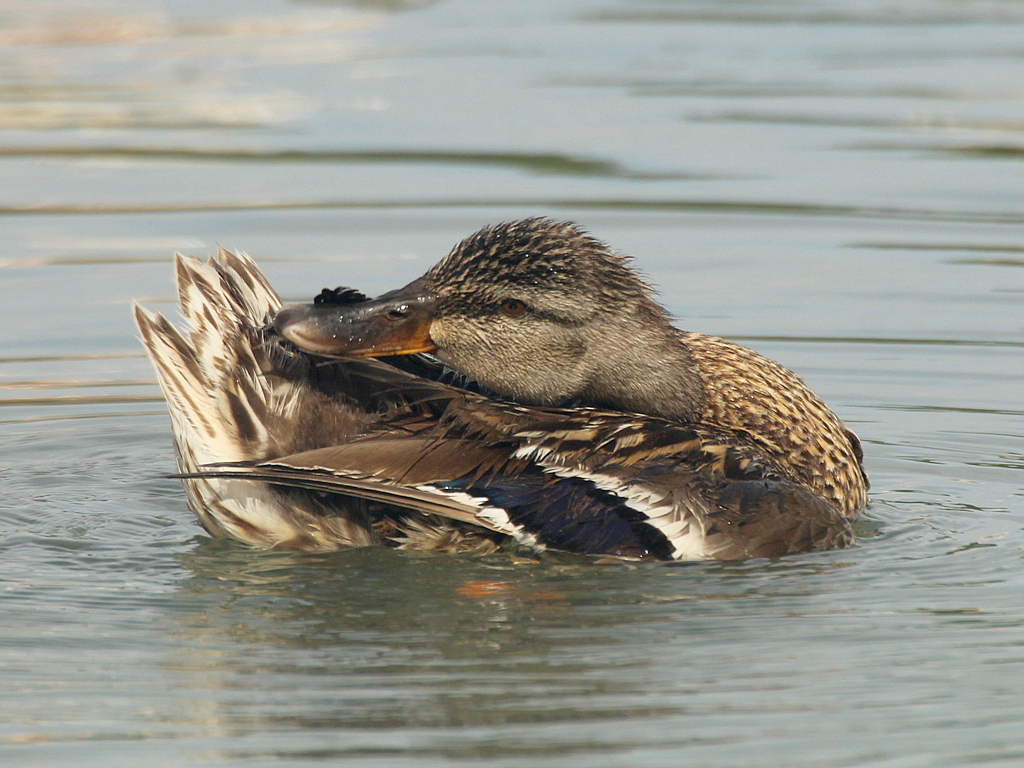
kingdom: Animalia
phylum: Chordata
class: Aves
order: Anseriformes
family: Anatidae
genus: Anas
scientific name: Anas platyrhynchos
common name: Mallard
